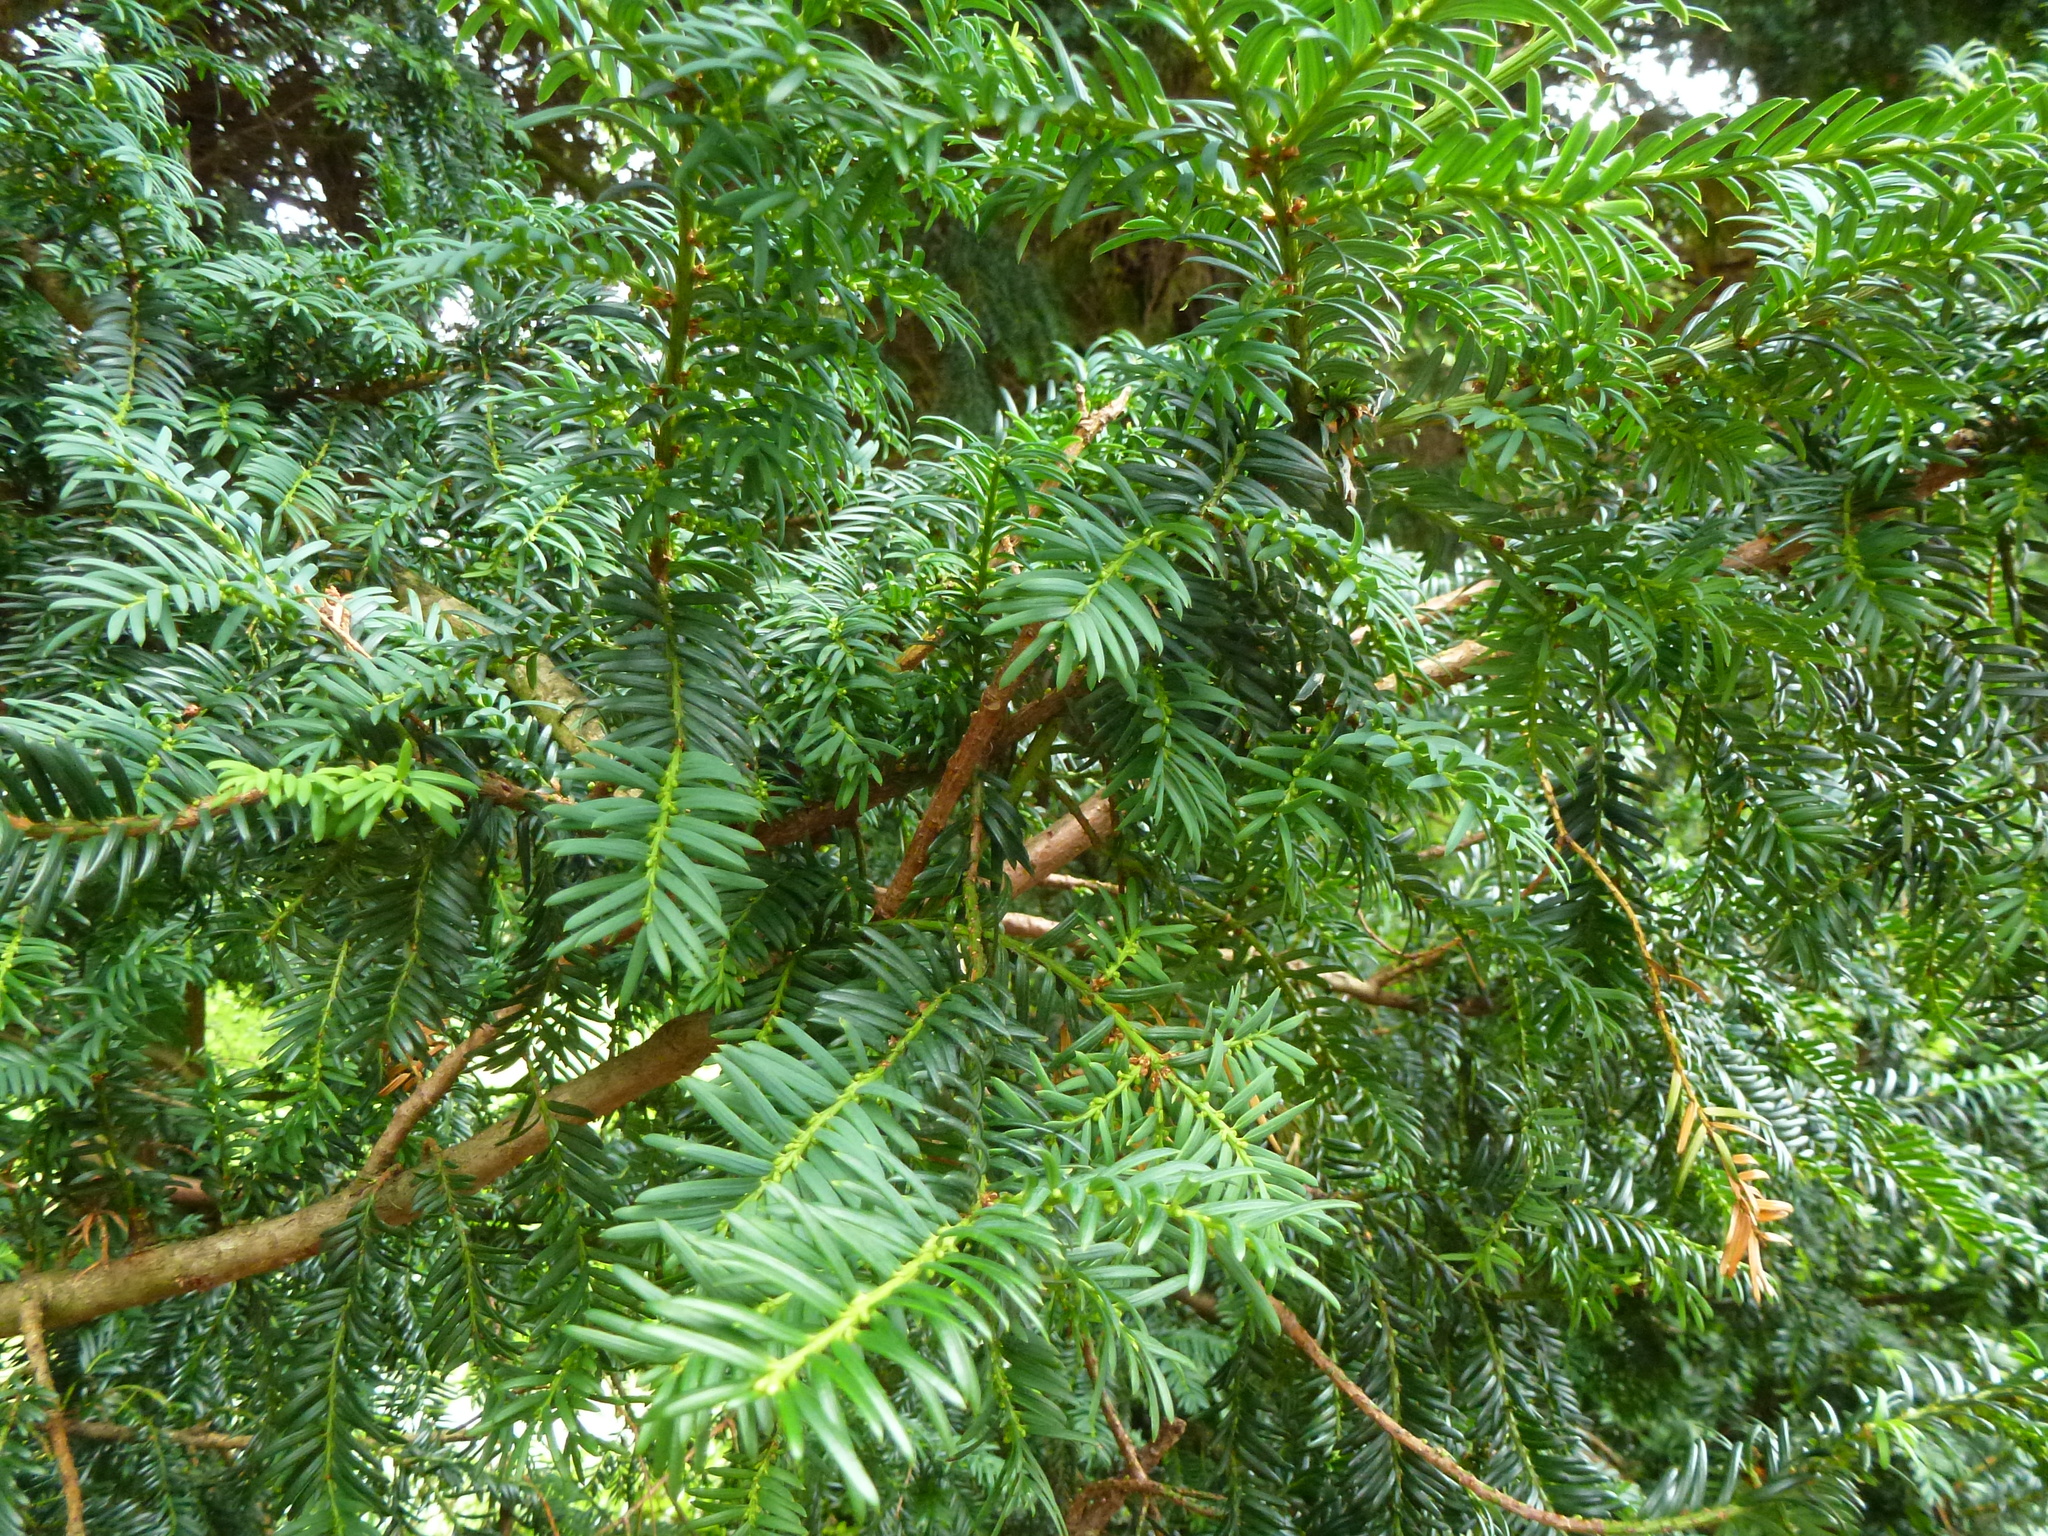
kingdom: Plantae
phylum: Tracheophyta
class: Pinopsida
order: Pinales
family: Taxaceae
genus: Taxus
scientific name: Taxus baccata
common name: Yew
